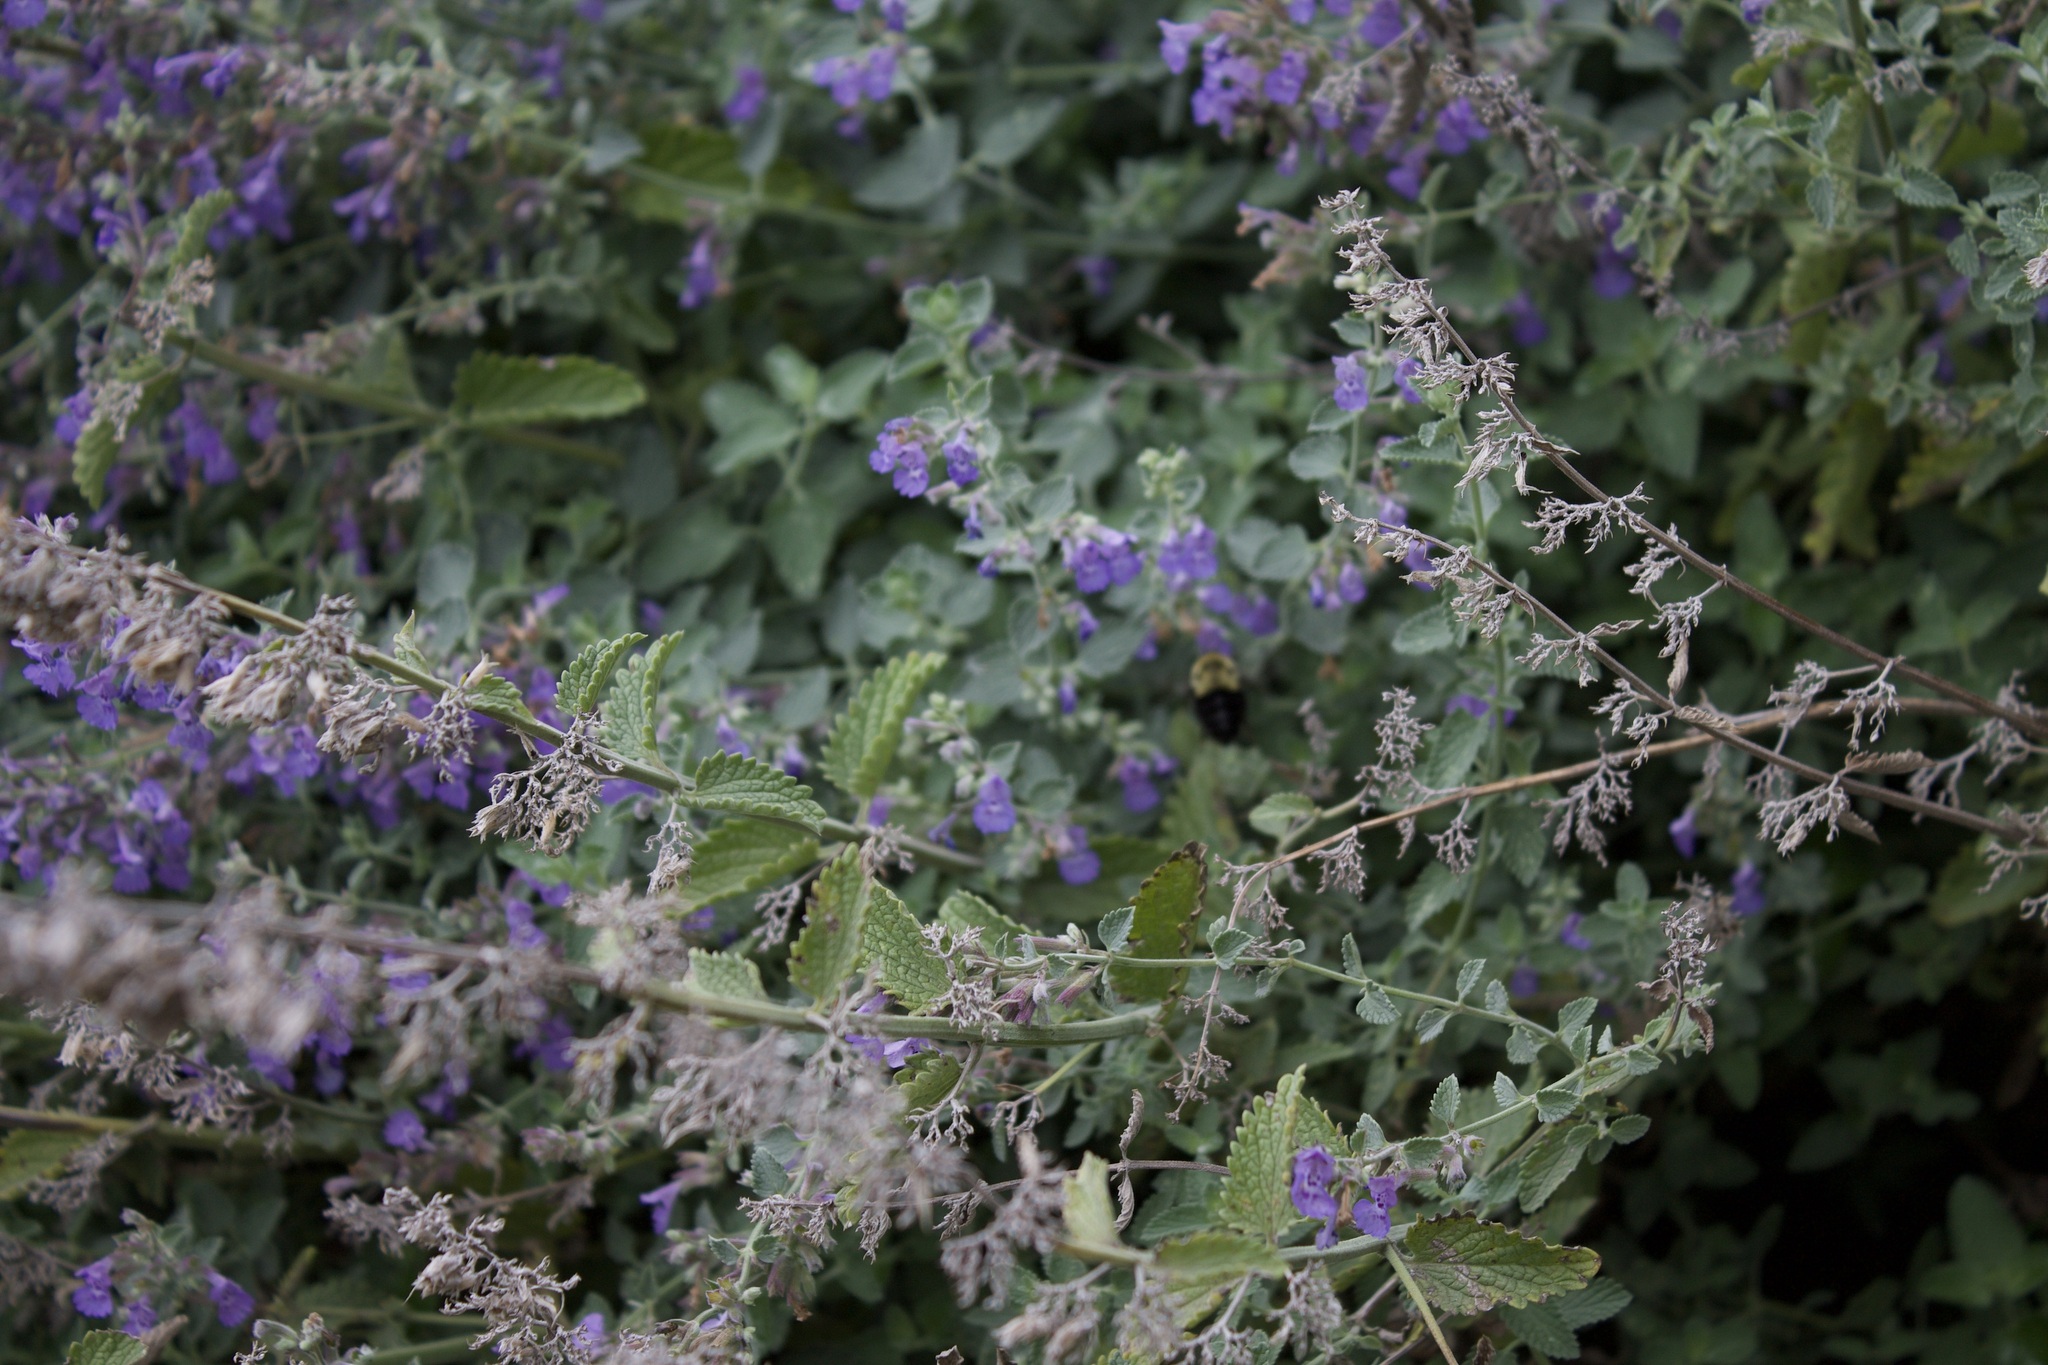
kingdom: Animalia
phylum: Arthropoda
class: Insecta
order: Hymenoptera
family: Apidae
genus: Bombus
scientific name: Bombus impatiens
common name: Common eastern bumble bee
